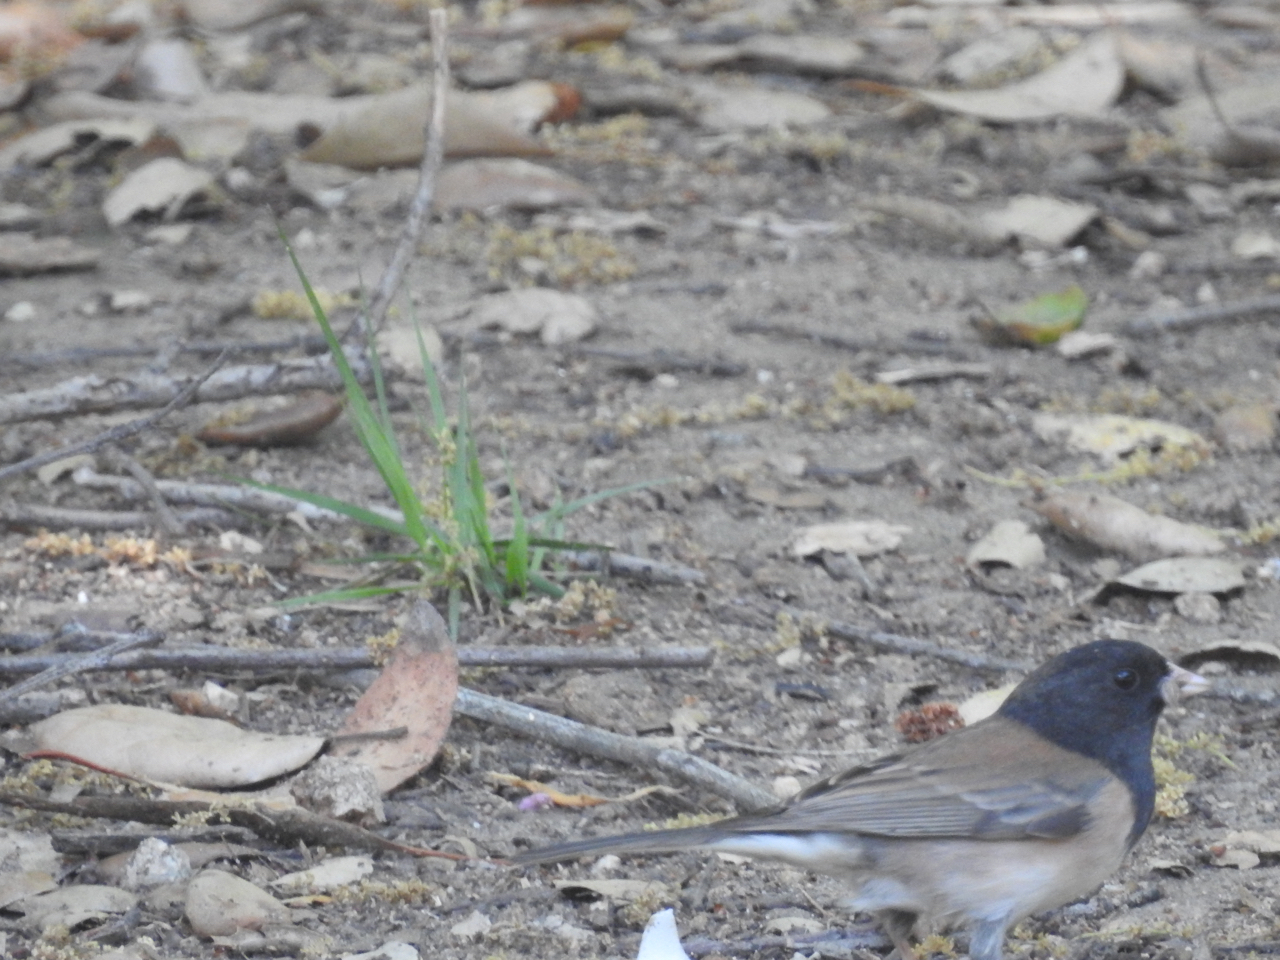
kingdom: Animalia
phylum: Chordata
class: Aves
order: Passeriformes
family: Passerellidae
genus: Junco
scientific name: Junco hyemalis
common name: Dark-eyed junco
